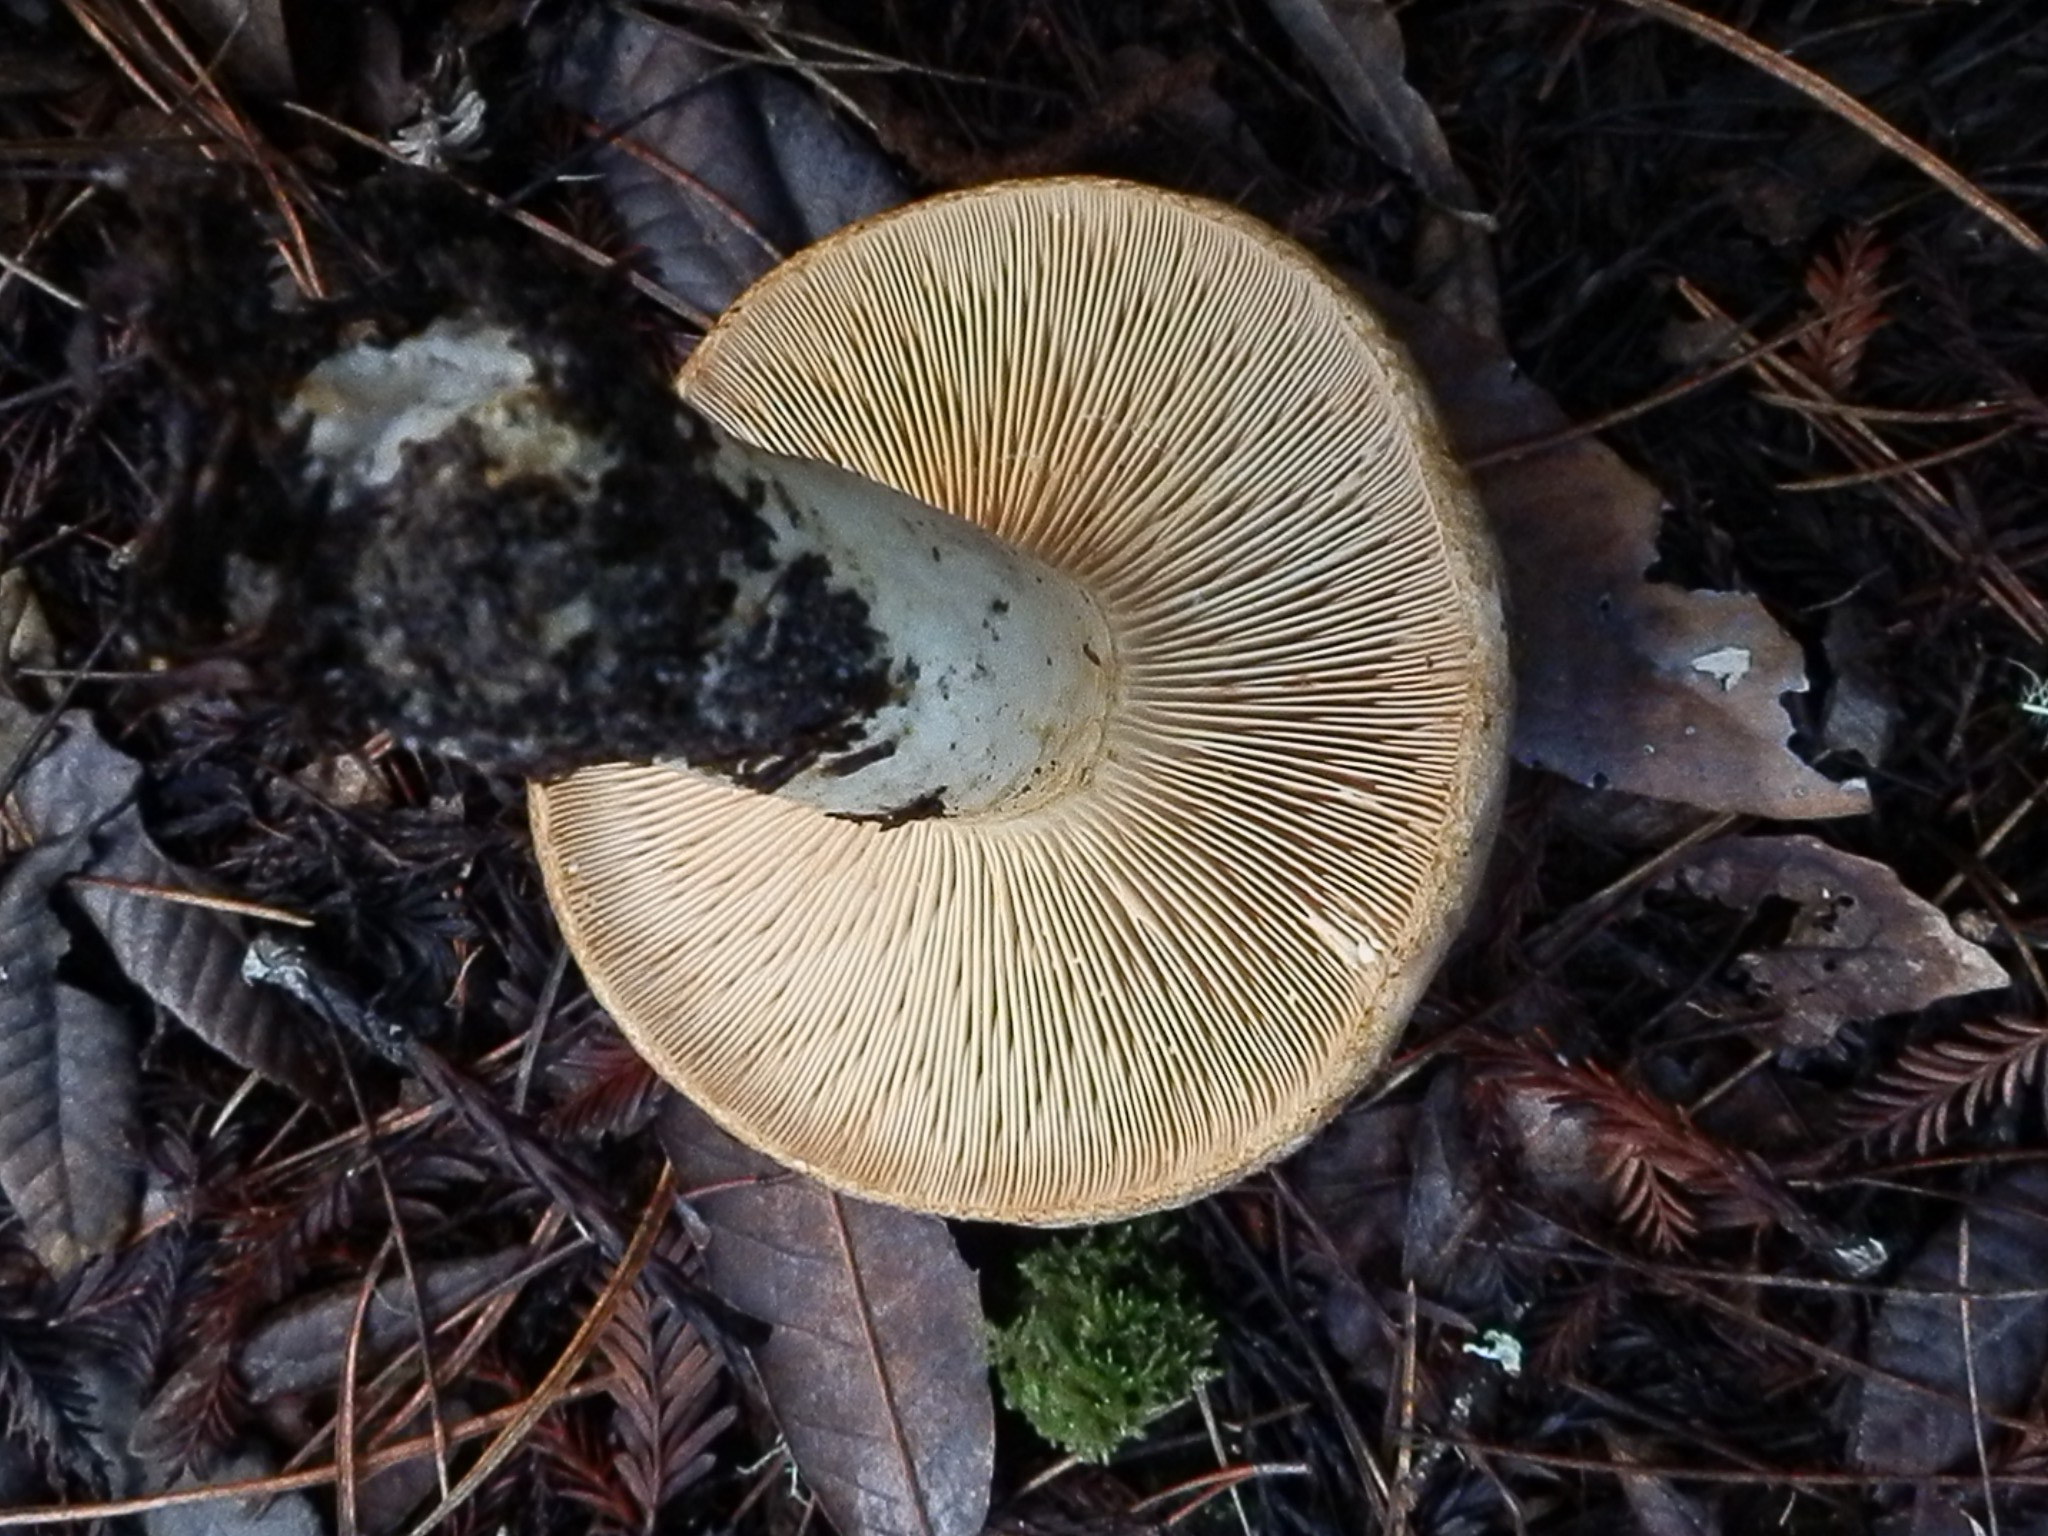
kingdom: Fungi
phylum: Basidiomycota
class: Agaricomycetes
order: Russulales
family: Russulaceae
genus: Lactarius
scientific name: Lactarius argillaceifolius
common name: Clay-gilled milkcap
